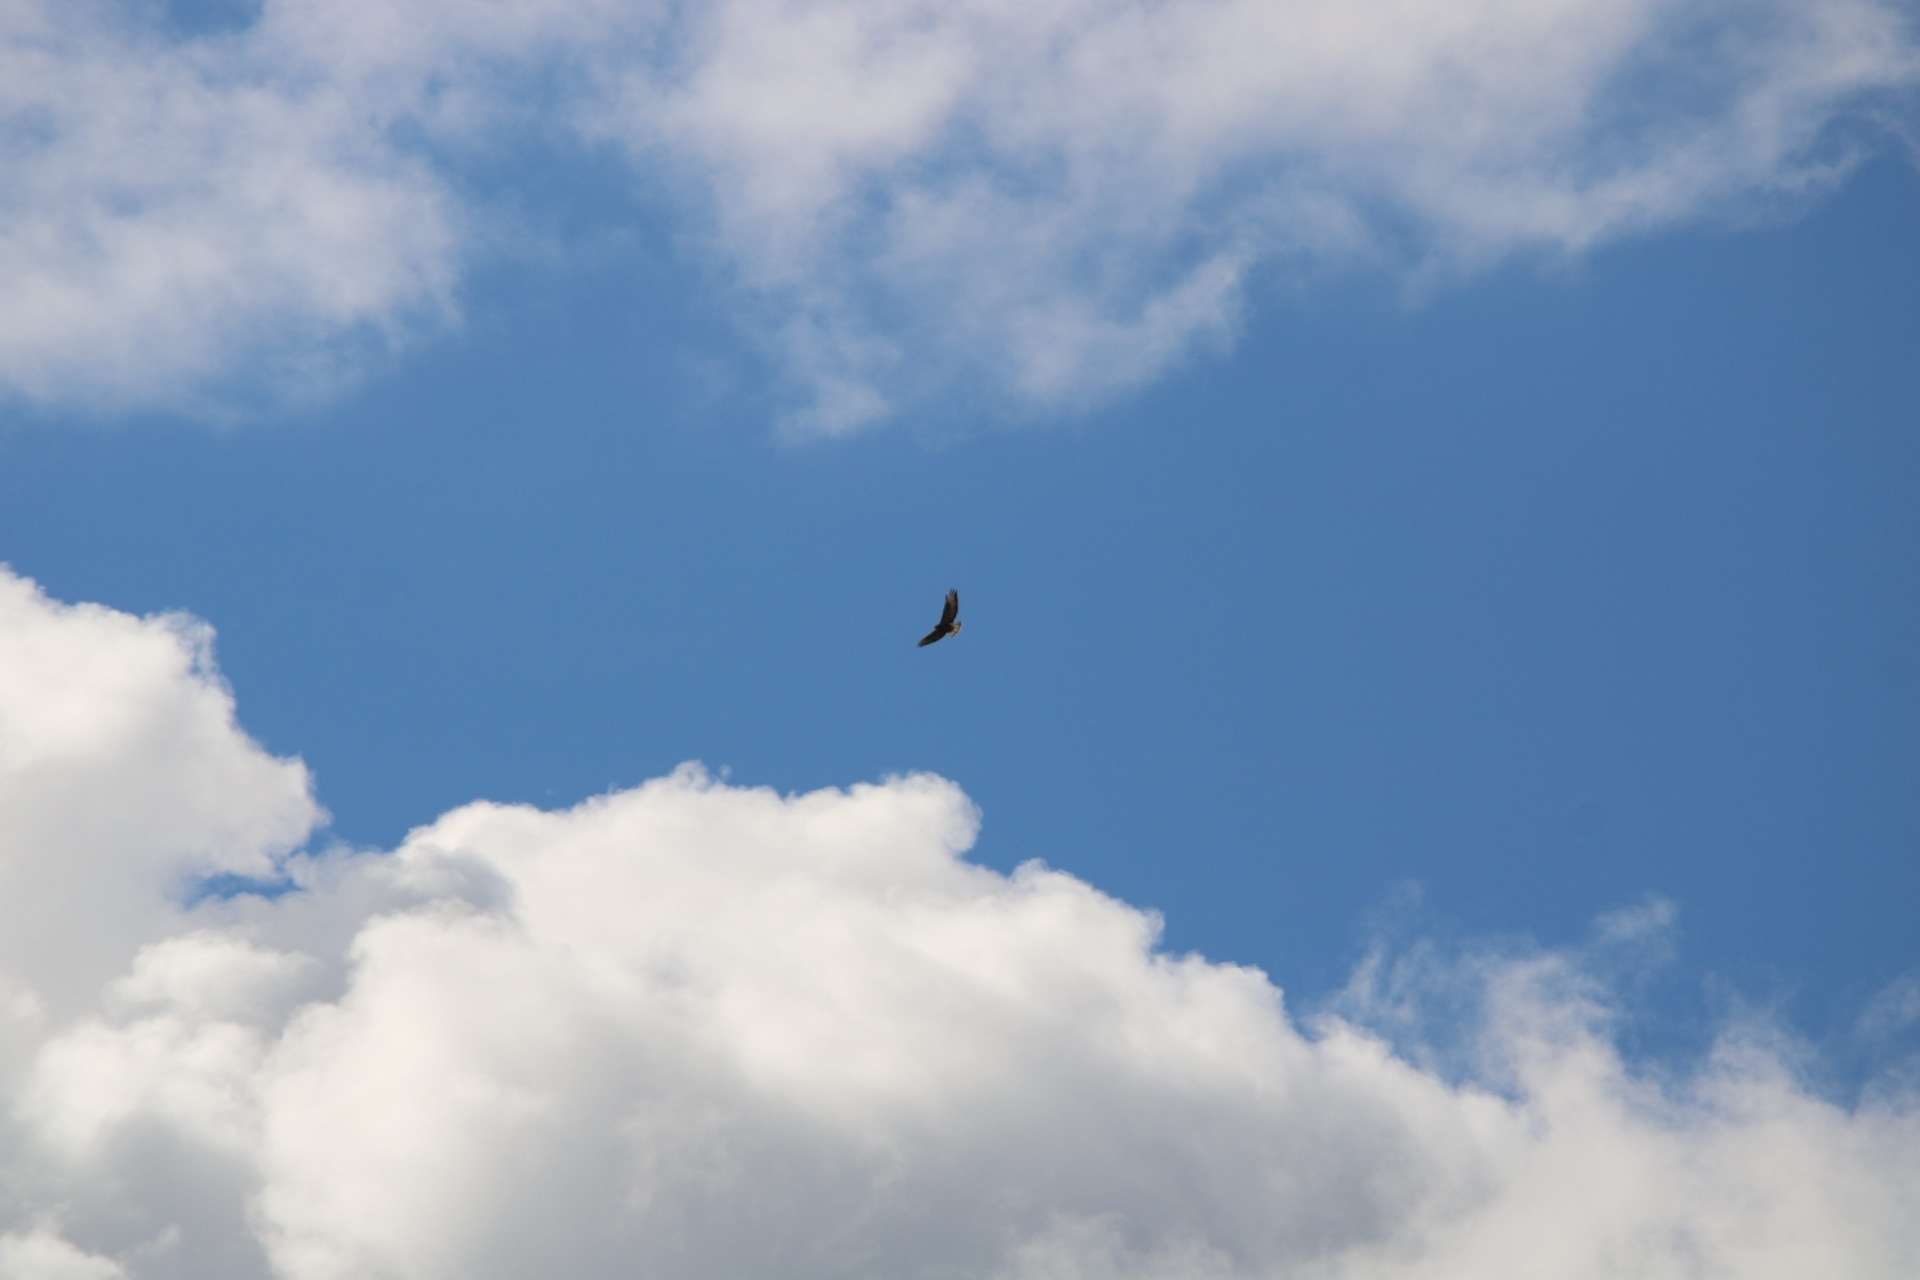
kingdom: Animalia
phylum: Chordata
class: Aves
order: Accipitriformes
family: Accipitridae
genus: Buteo
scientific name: Buteo buteo
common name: Common buzzard
